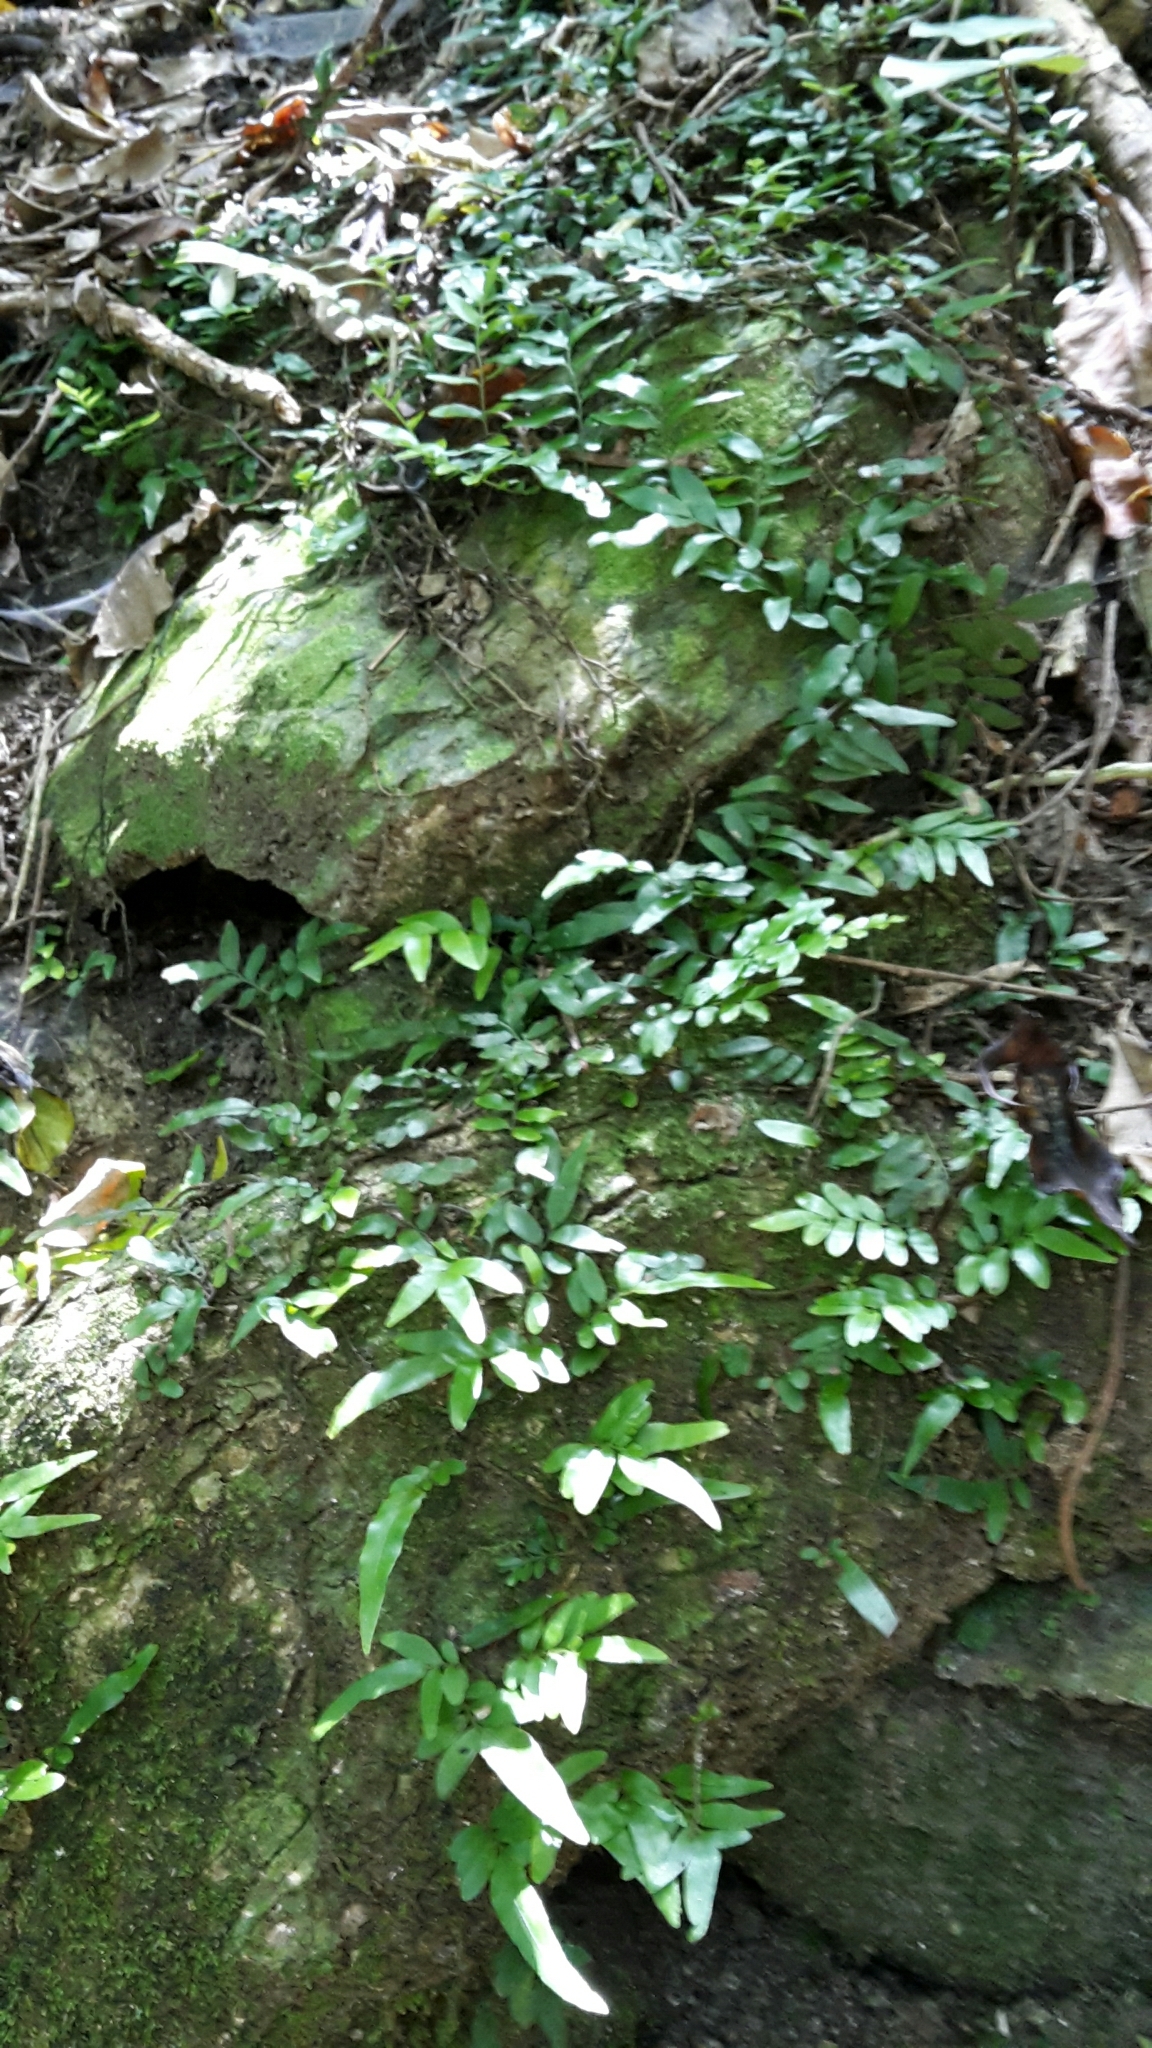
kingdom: Plantae
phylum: Tracheophyta
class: Polypodiopsida
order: Polypodiales
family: Tectariaceae
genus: Arthropteris
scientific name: Arthropteris tenella
